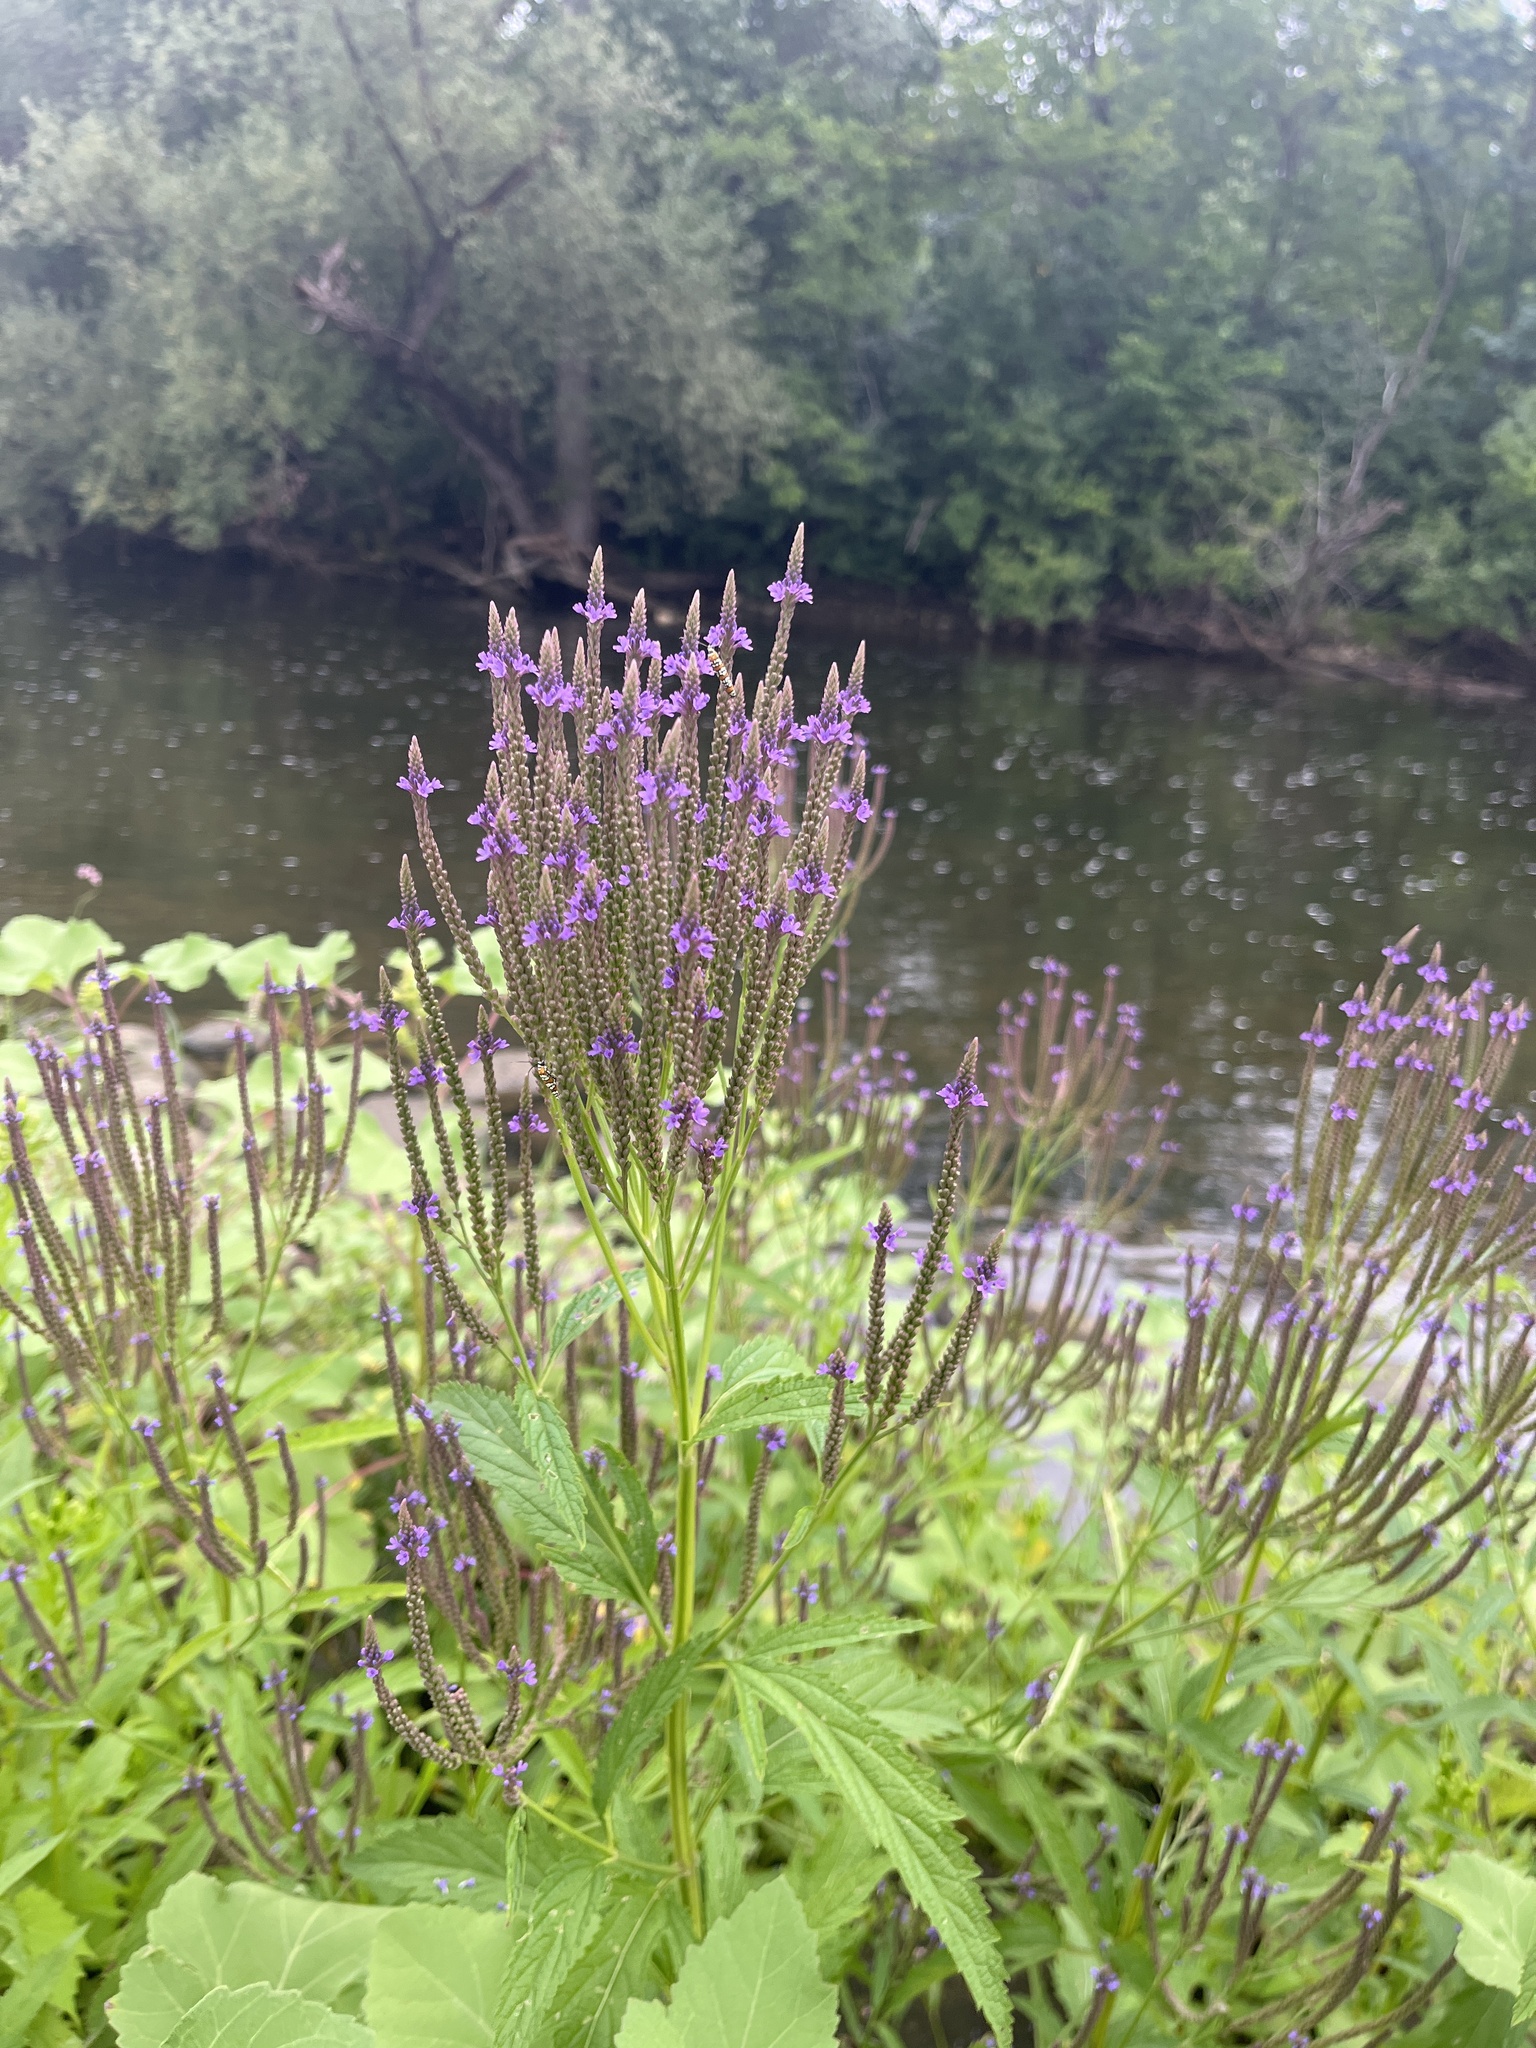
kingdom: Plantae
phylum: Tracheophyta
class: Magnoliopsida
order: Lamiales
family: Verbenaceae
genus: Verbena
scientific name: Verbena hastata
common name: American blue vervain
